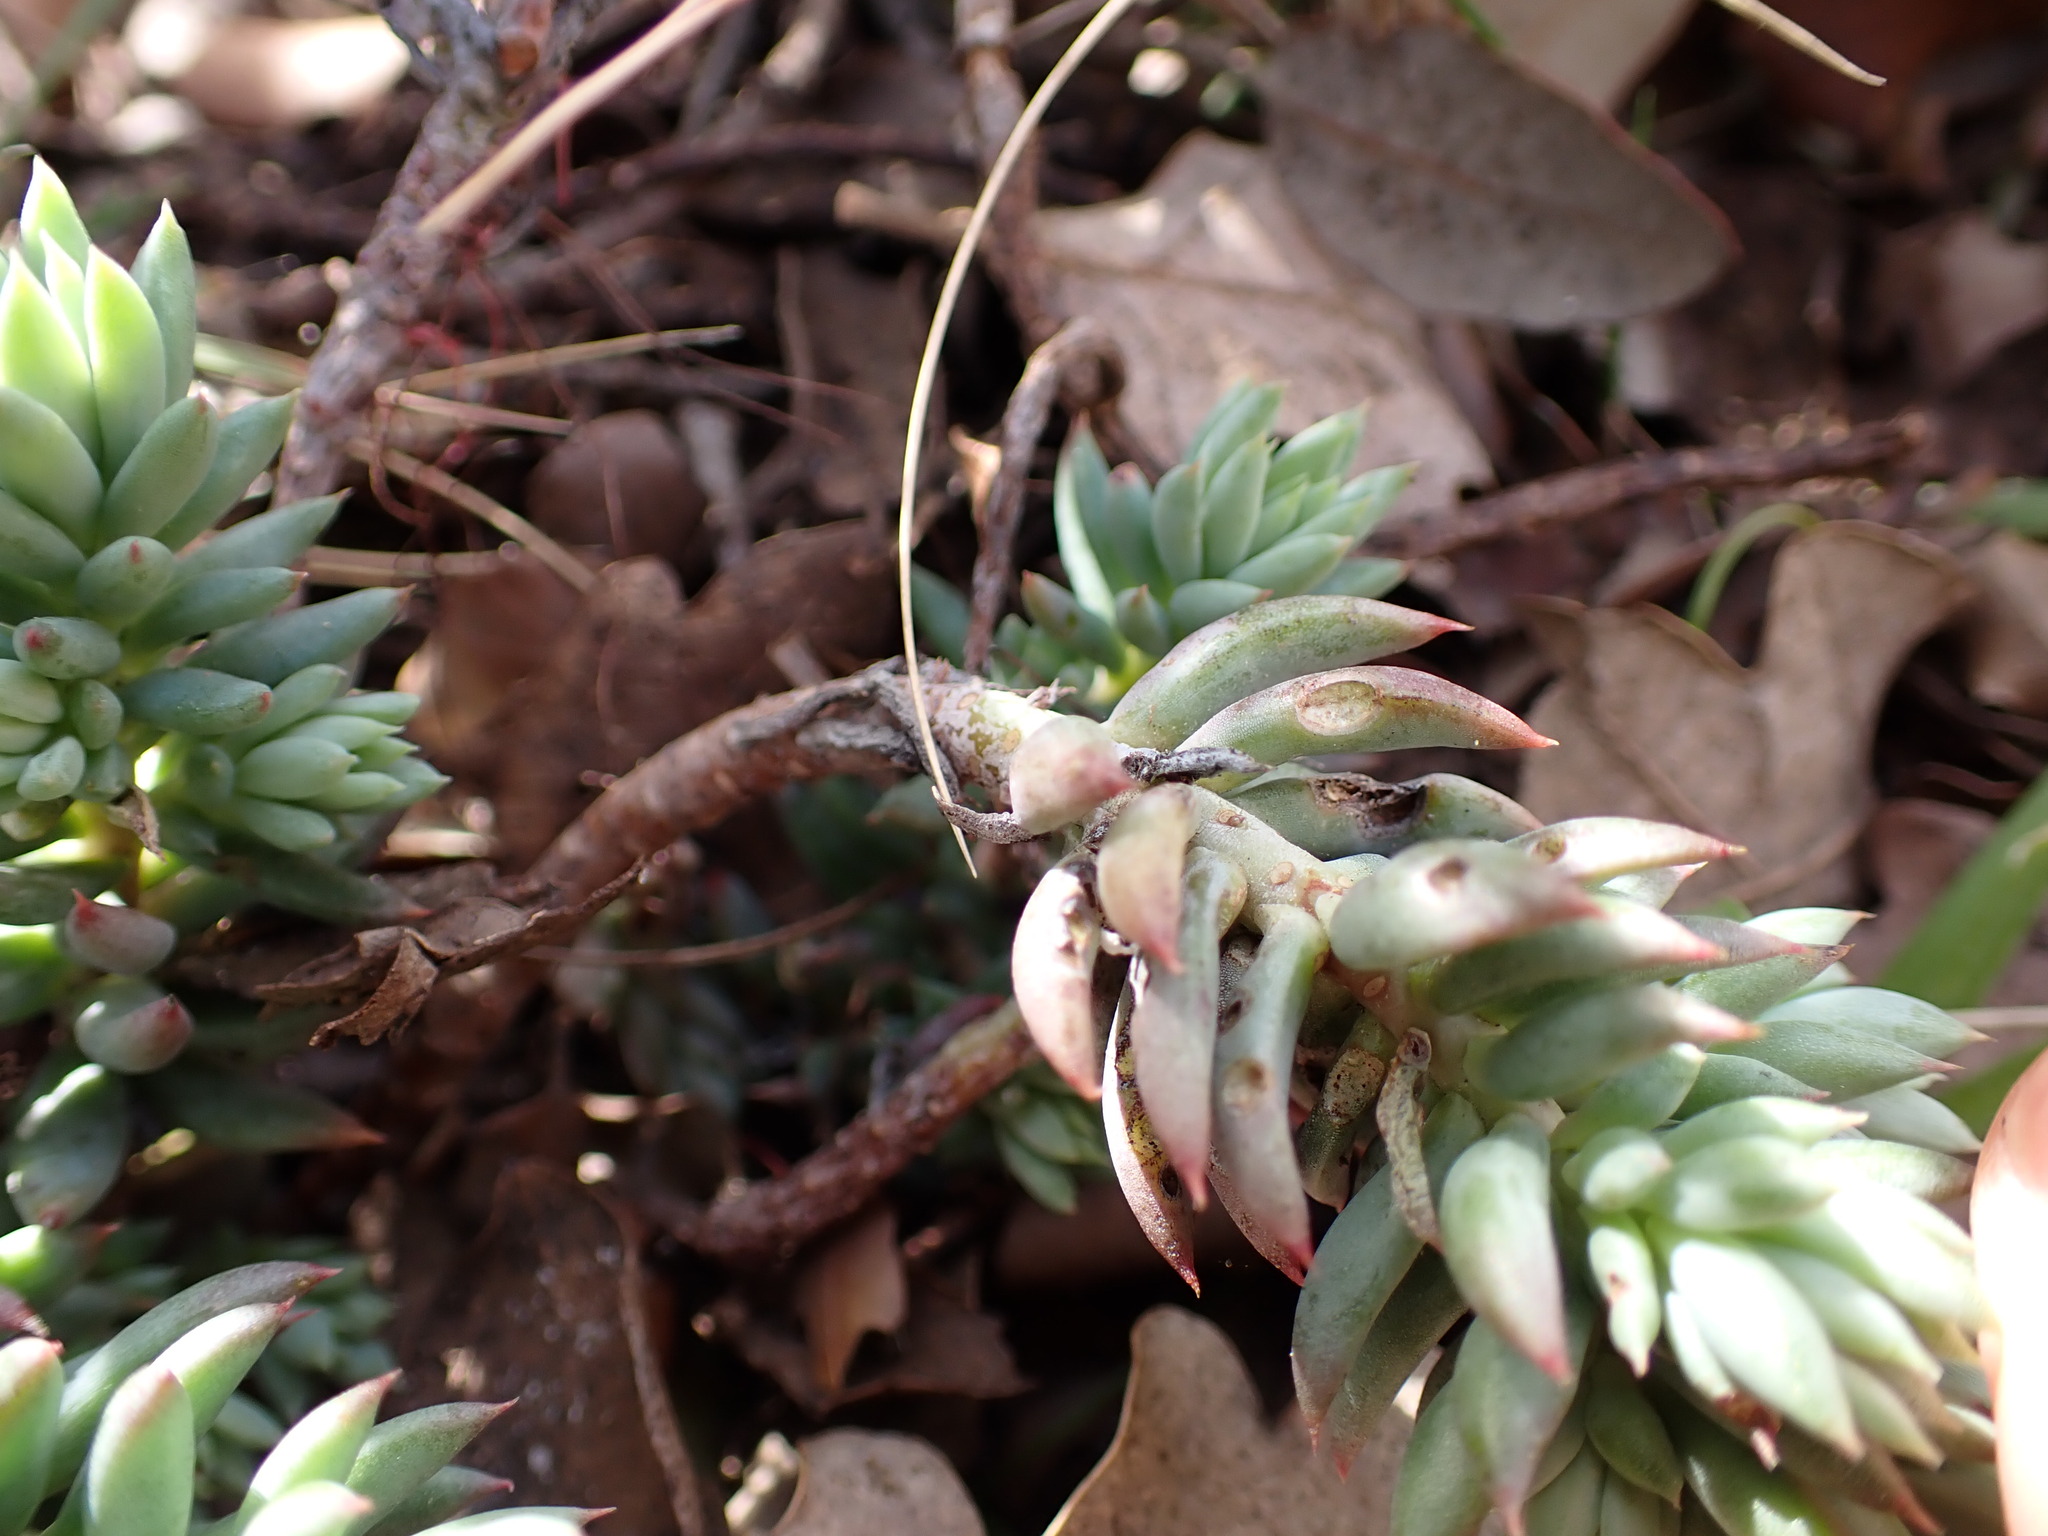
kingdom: Plantae
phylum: Tracheophyta
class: Magnoliopsida
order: Saxifragales
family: Crassulaceae
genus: Petrosedum
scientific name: Petrosedum sediforme
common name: Pale stonecrop
